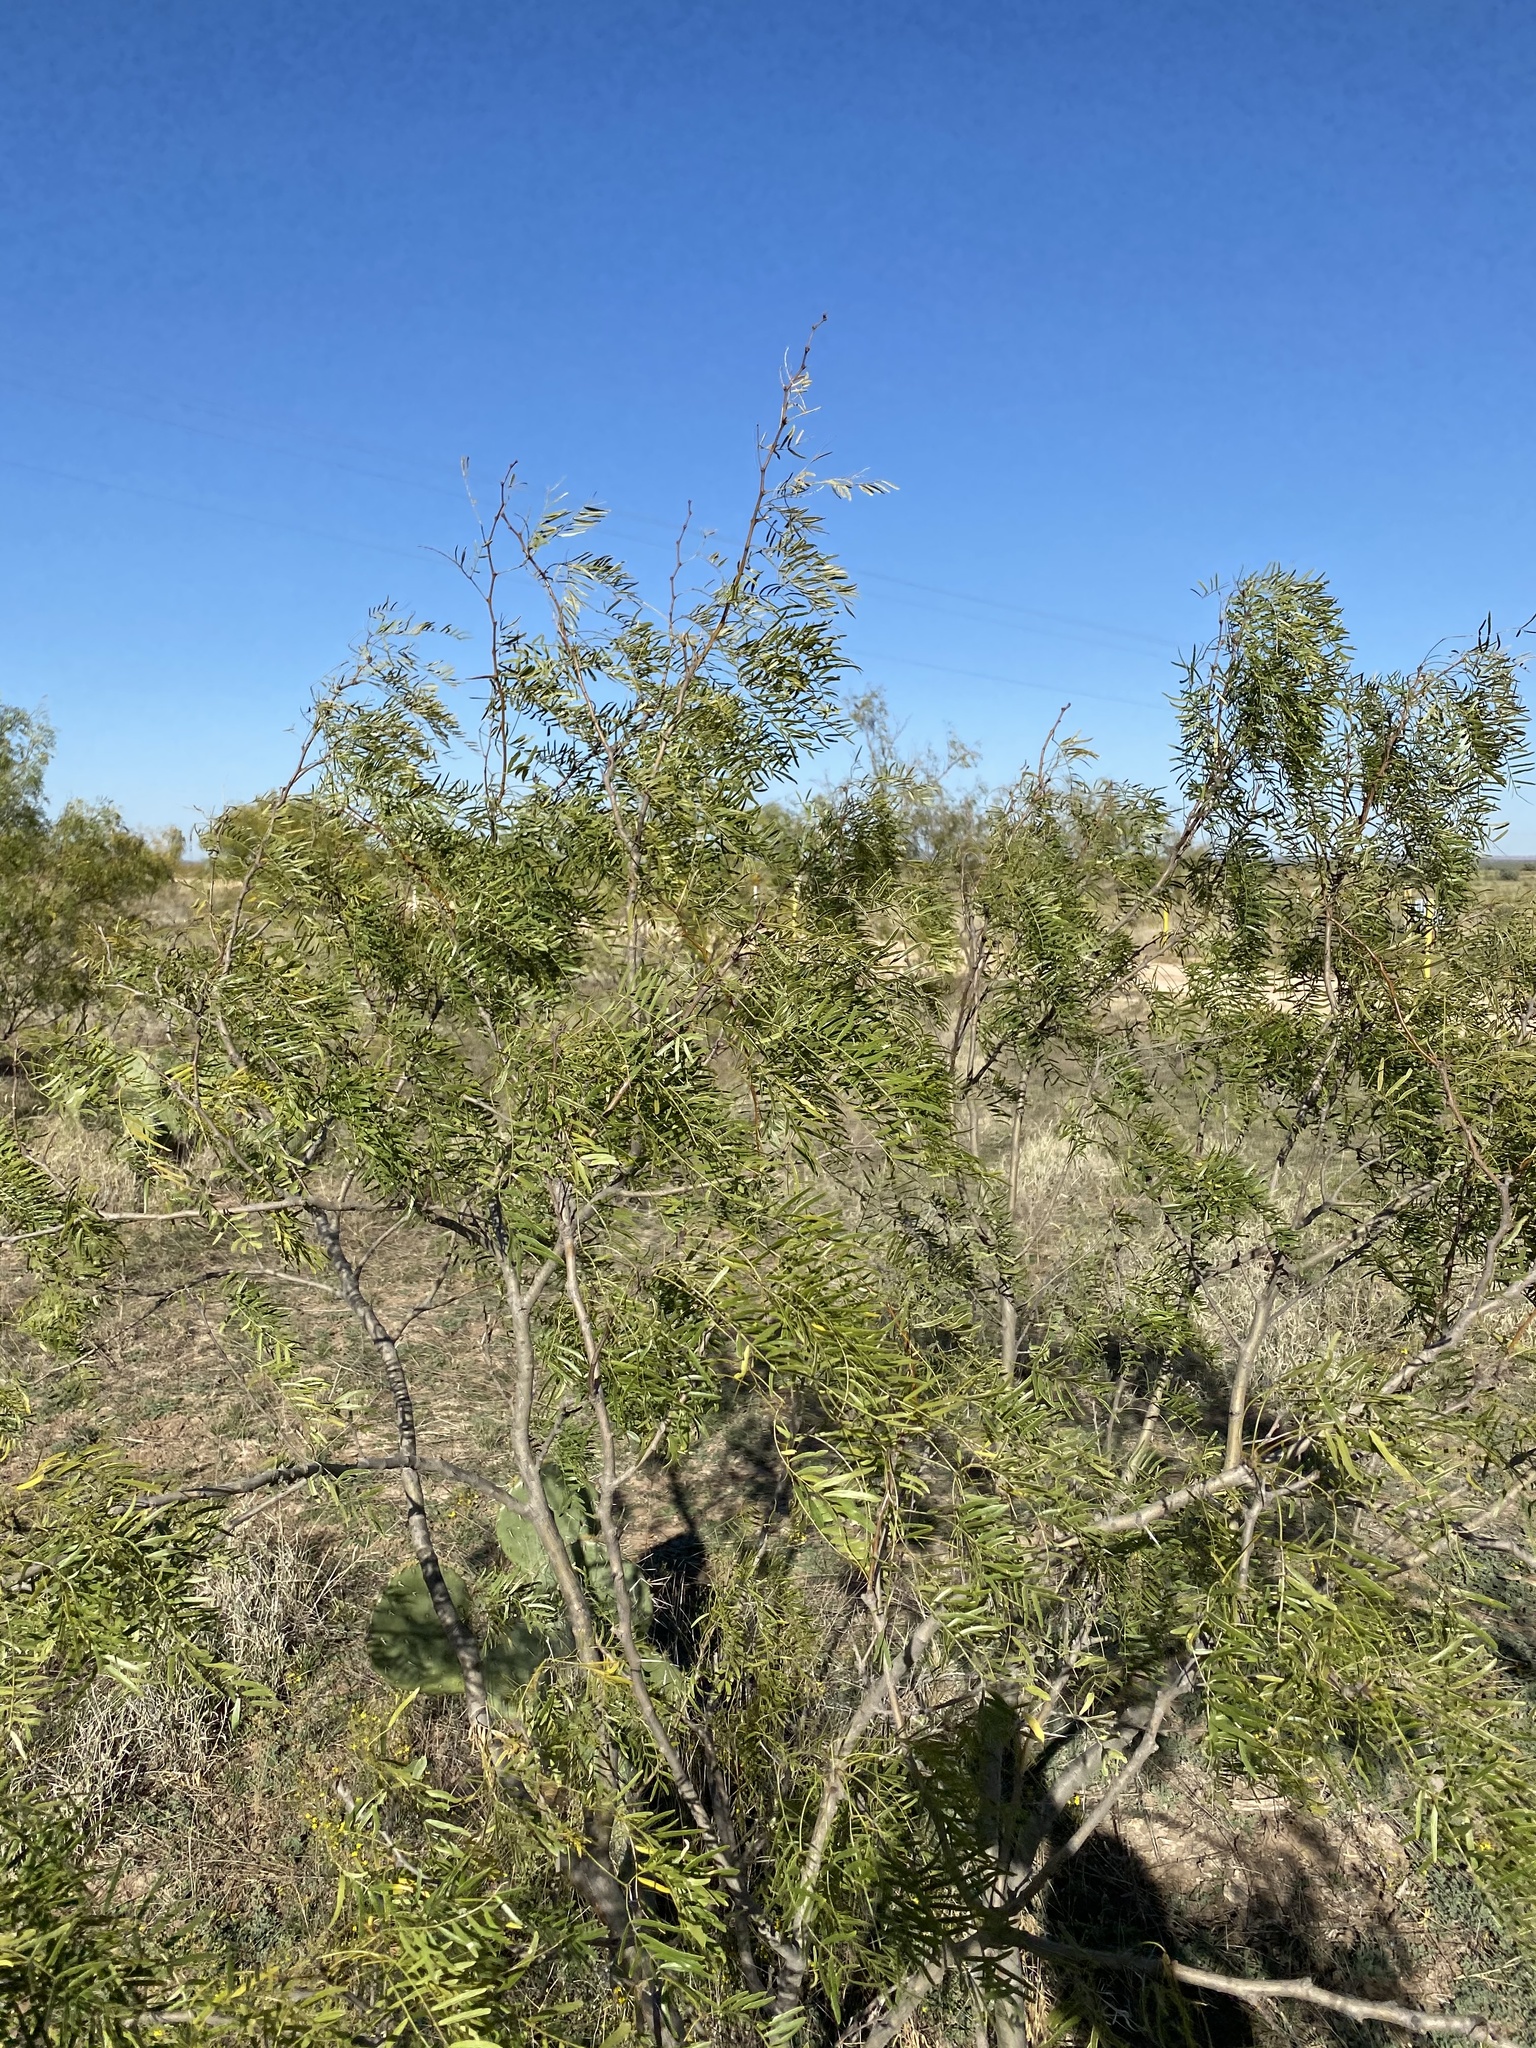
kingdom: Plantae
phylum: Tracheophyta
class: Magnoliopsida
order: Fabales
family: Fabaceae
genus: Prosopis
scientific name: Prosopis glandulosa
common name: Honey mesquite
